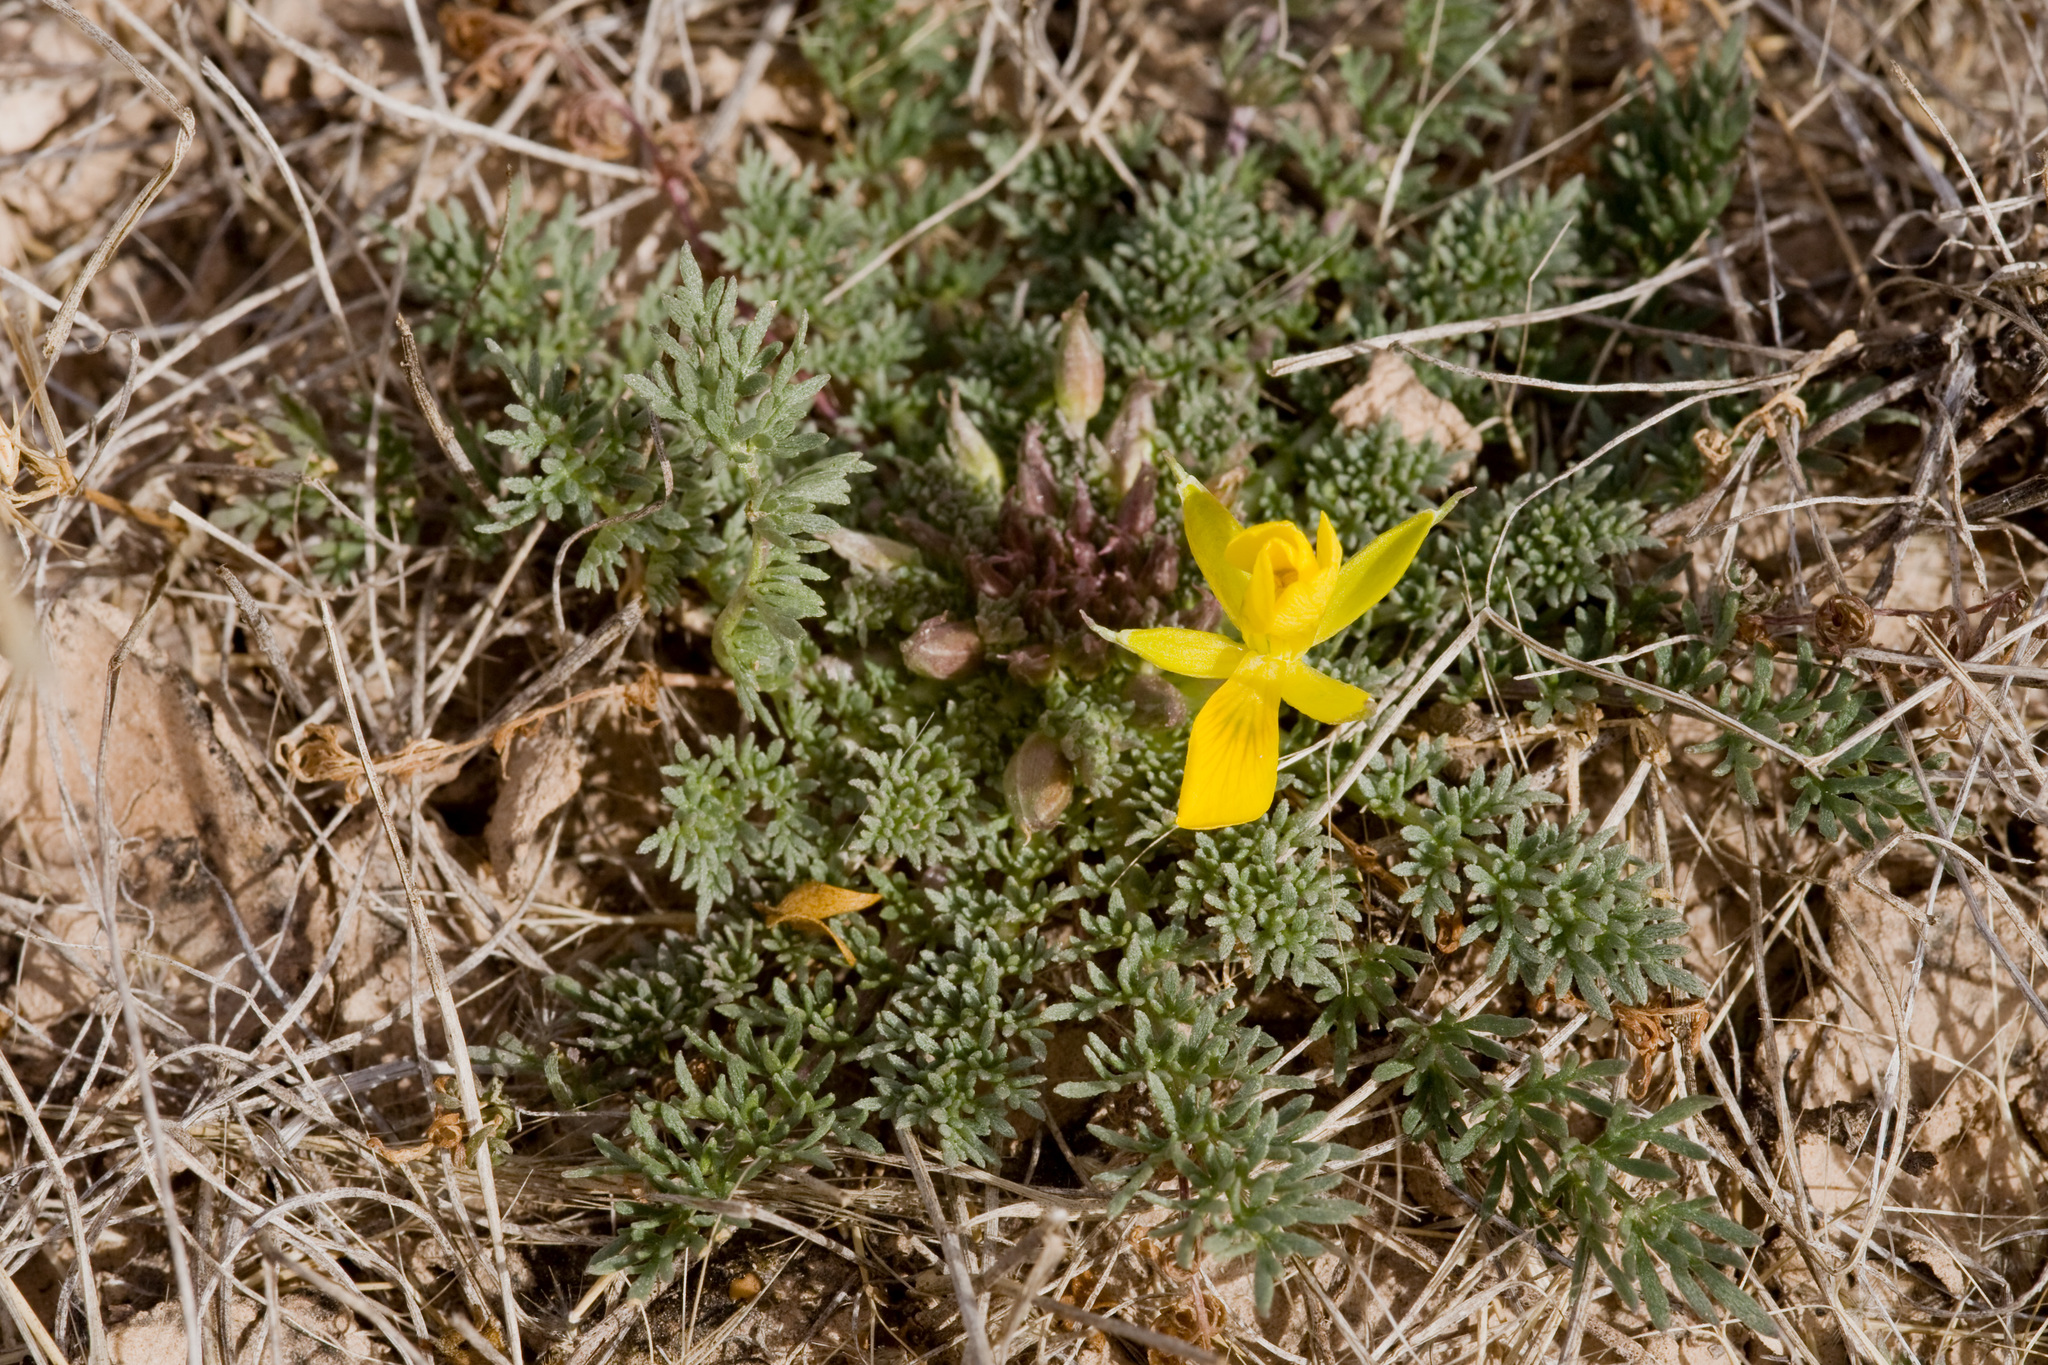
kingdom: Plantae
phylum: Tracheophyta
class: Magnoliopsida
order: Brassicales
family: Brassicaceae
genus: Selenia
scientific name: Selenia dissecta
